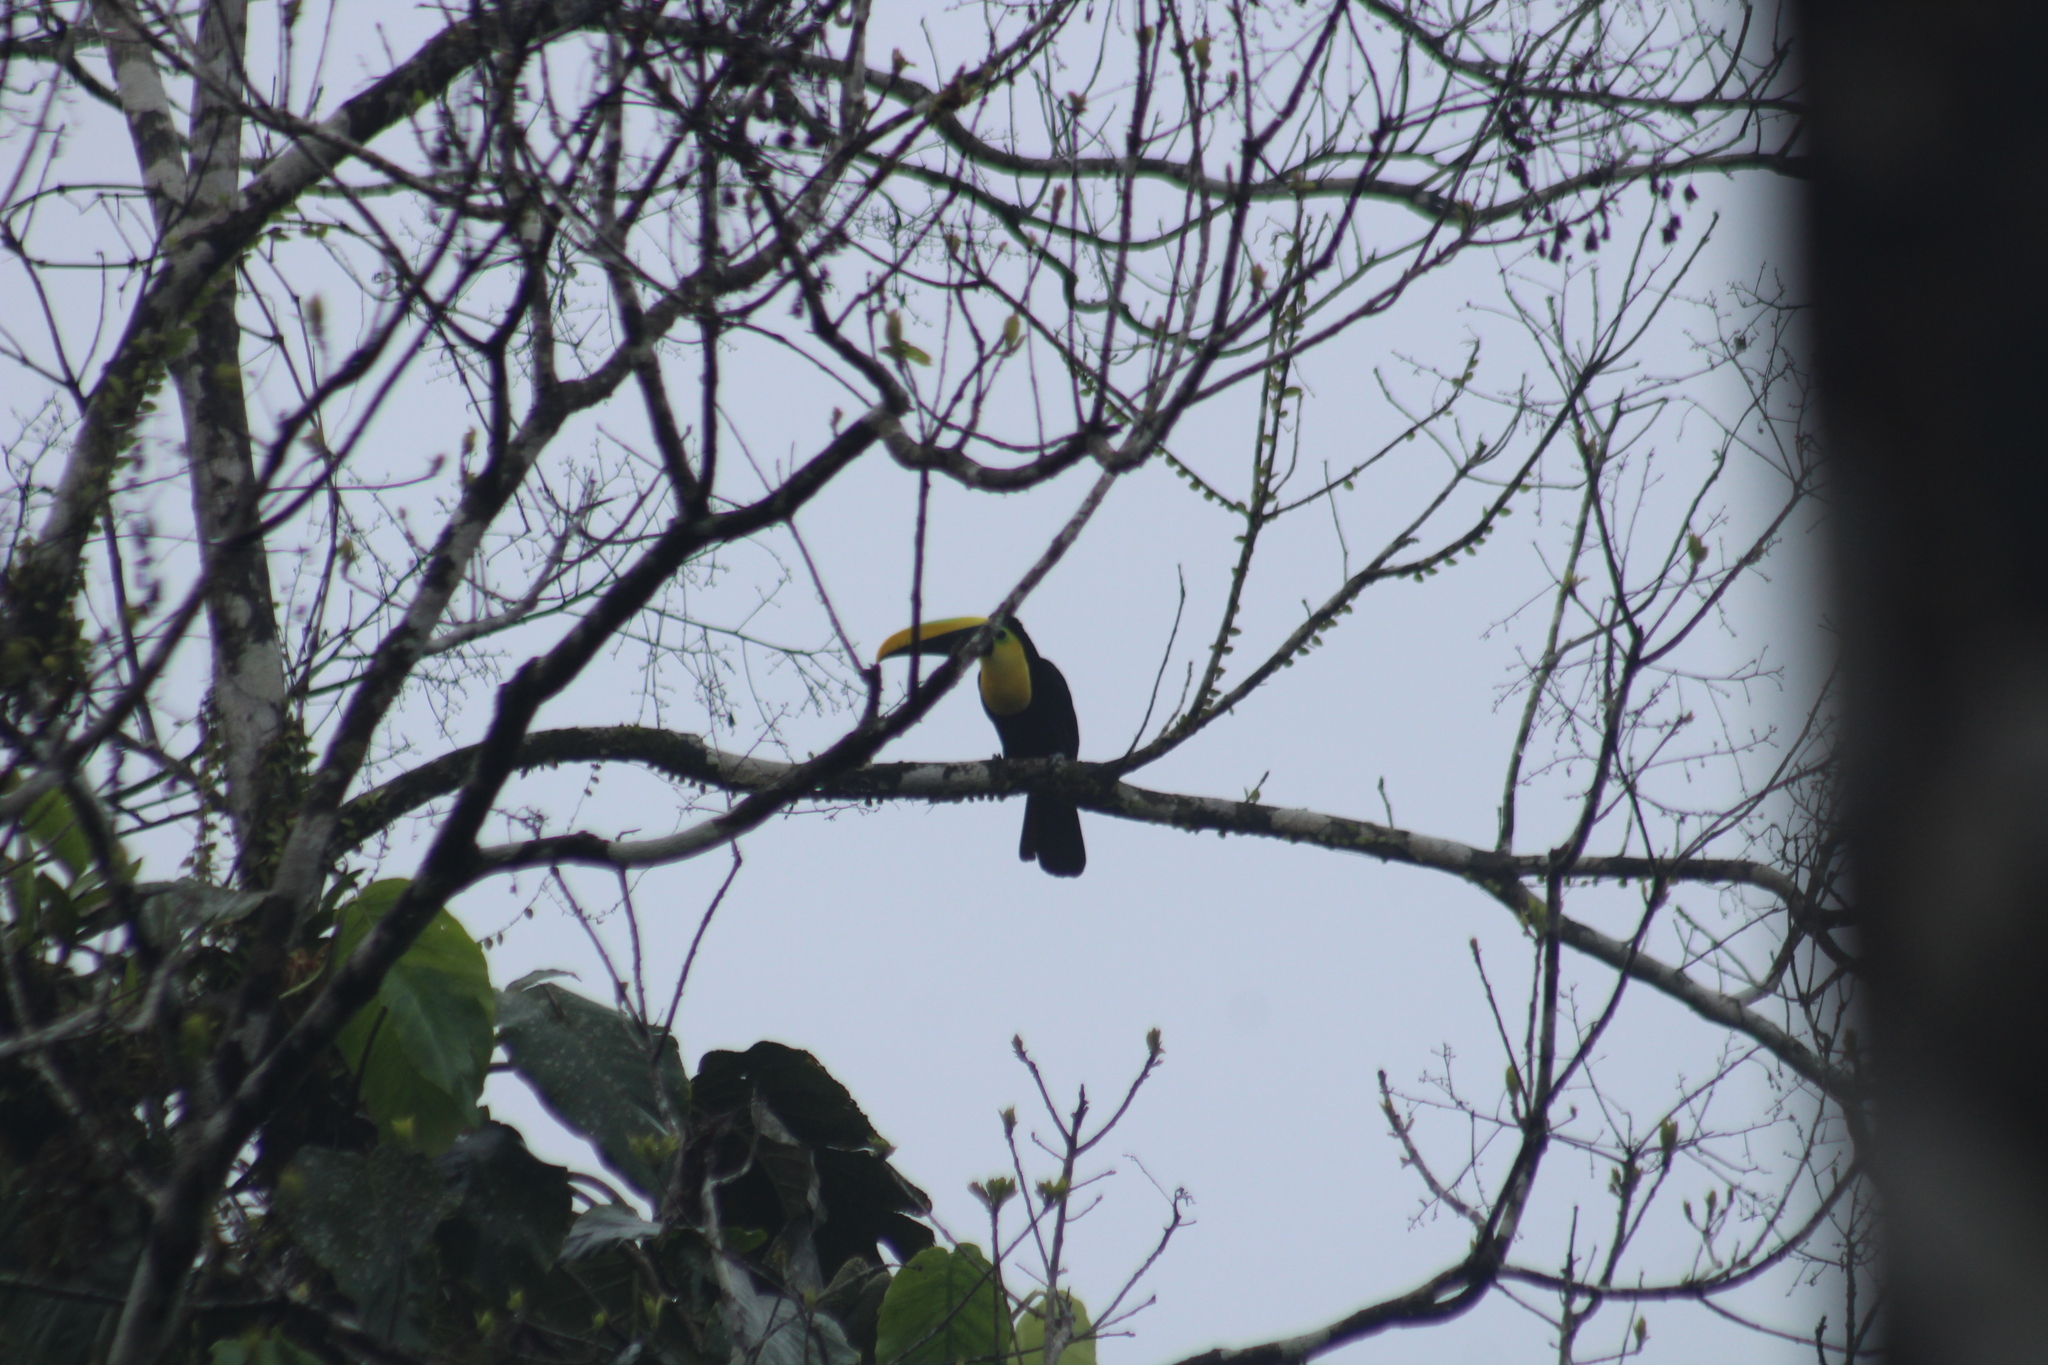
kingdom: Animalia
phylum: Chordata
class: Aves
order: Piciformes
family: Ramphastidae
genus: Ramphastos
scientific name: Ramphastos brevis
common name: Choco toucan
